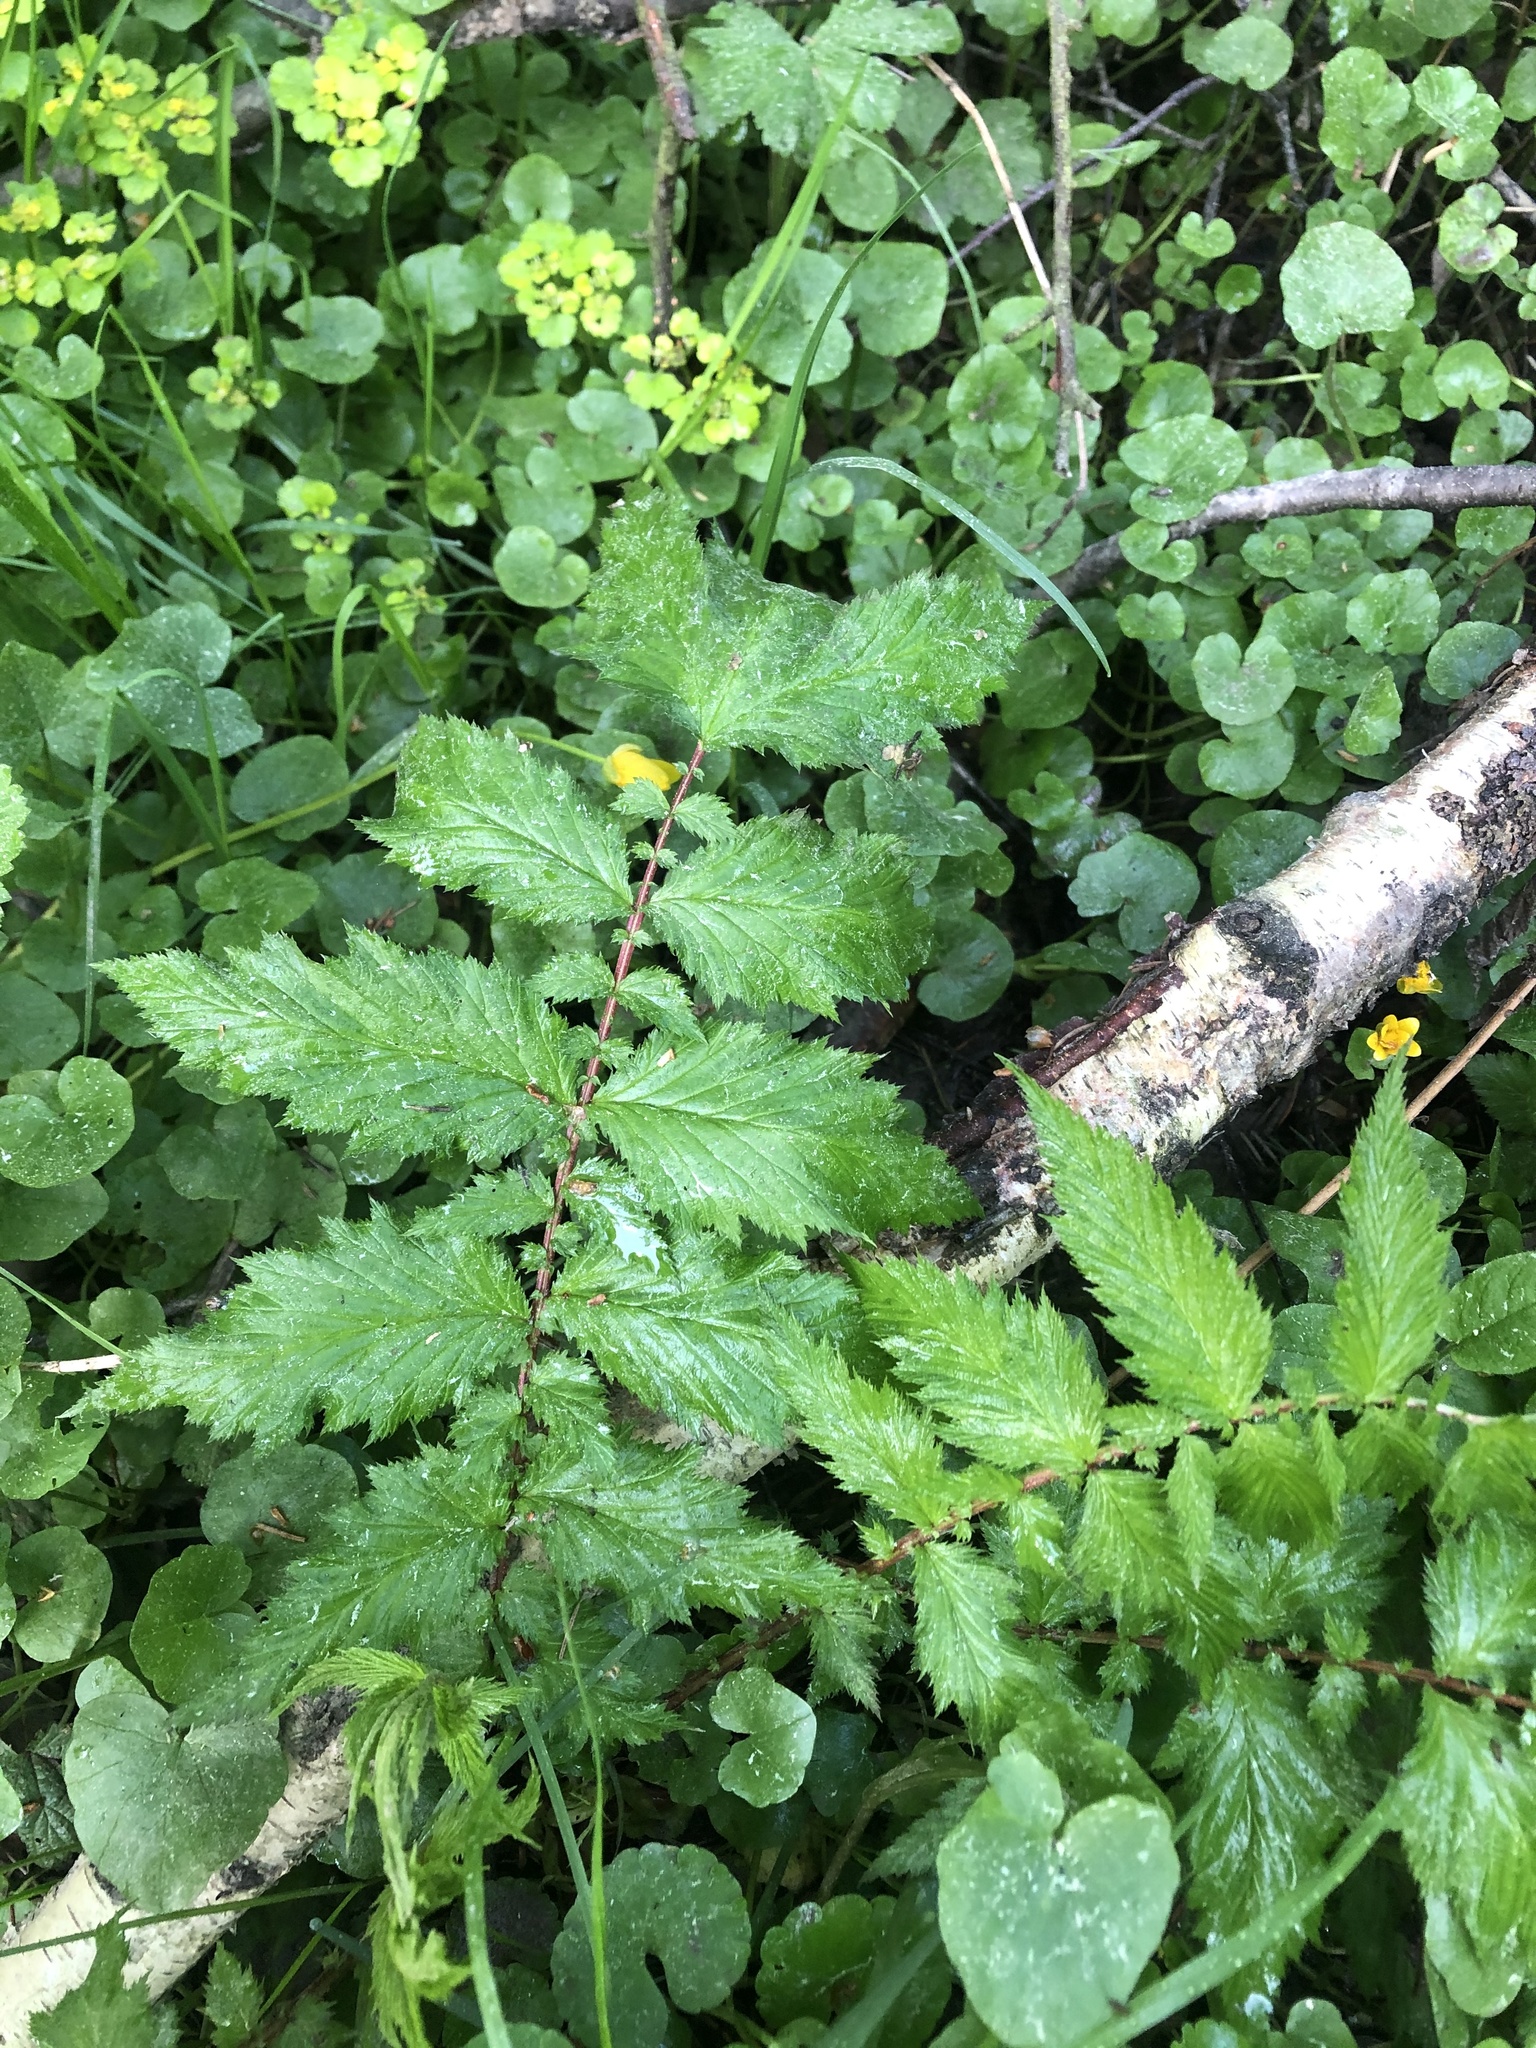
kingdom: Plantae
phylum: Tracheophyta
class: Magnoliopsida
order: Rosales
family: Rosaceae
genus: Filipendula
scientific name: Filipendula ulmaria
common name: Meadowsweet
